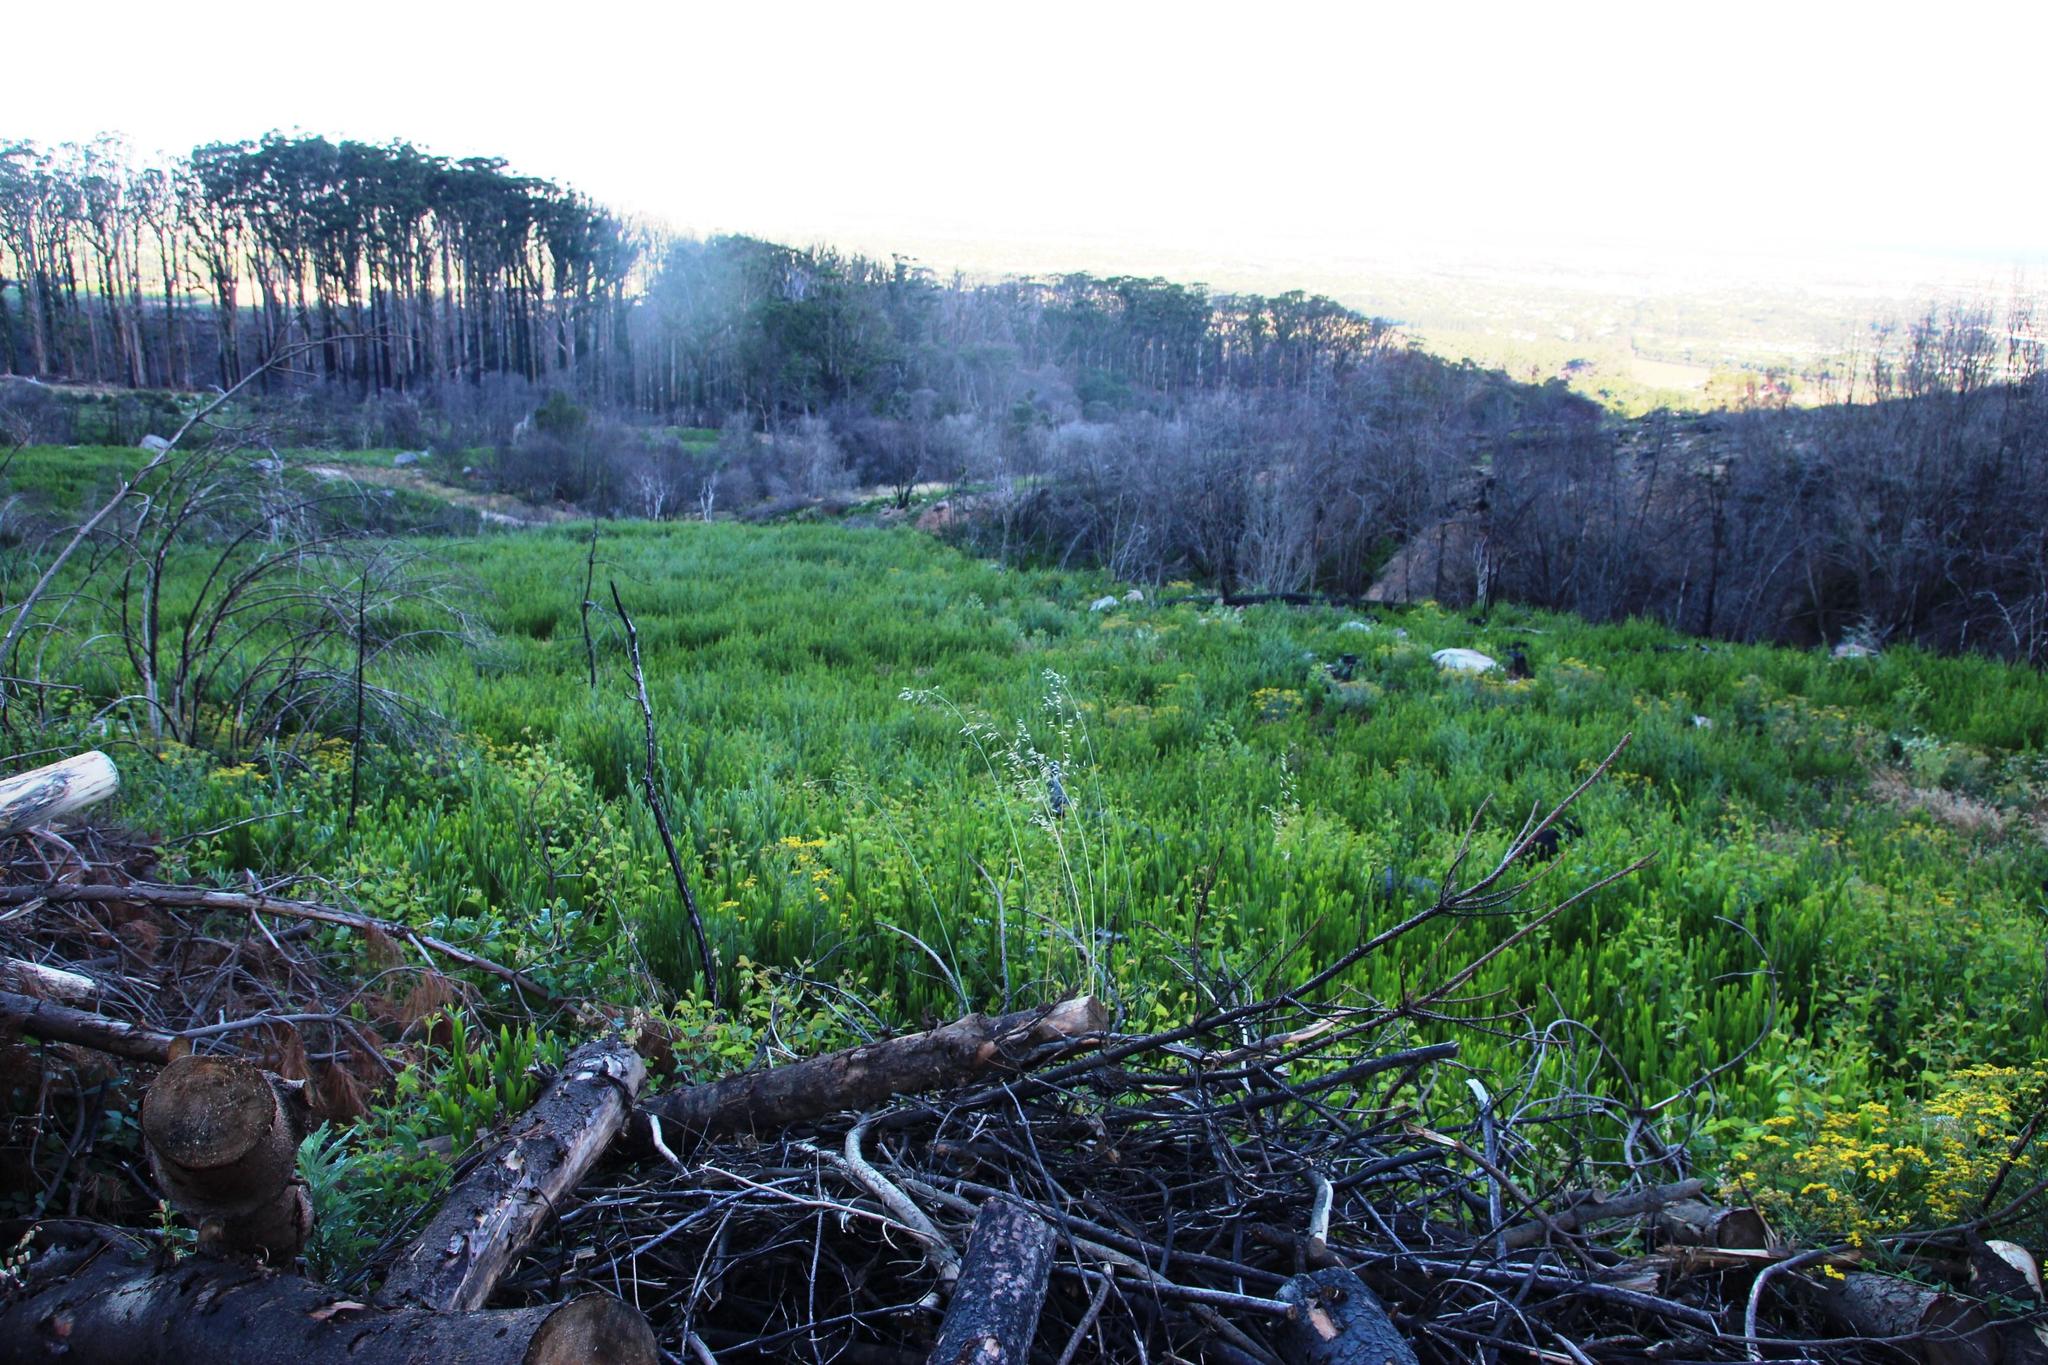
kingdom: Plantae
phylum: Tracheophyta
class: Magnoliopsida
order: Fabales
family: Fabaceae
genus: Acacia
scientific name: Acacia longifolia
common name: Sydney golden wattle
